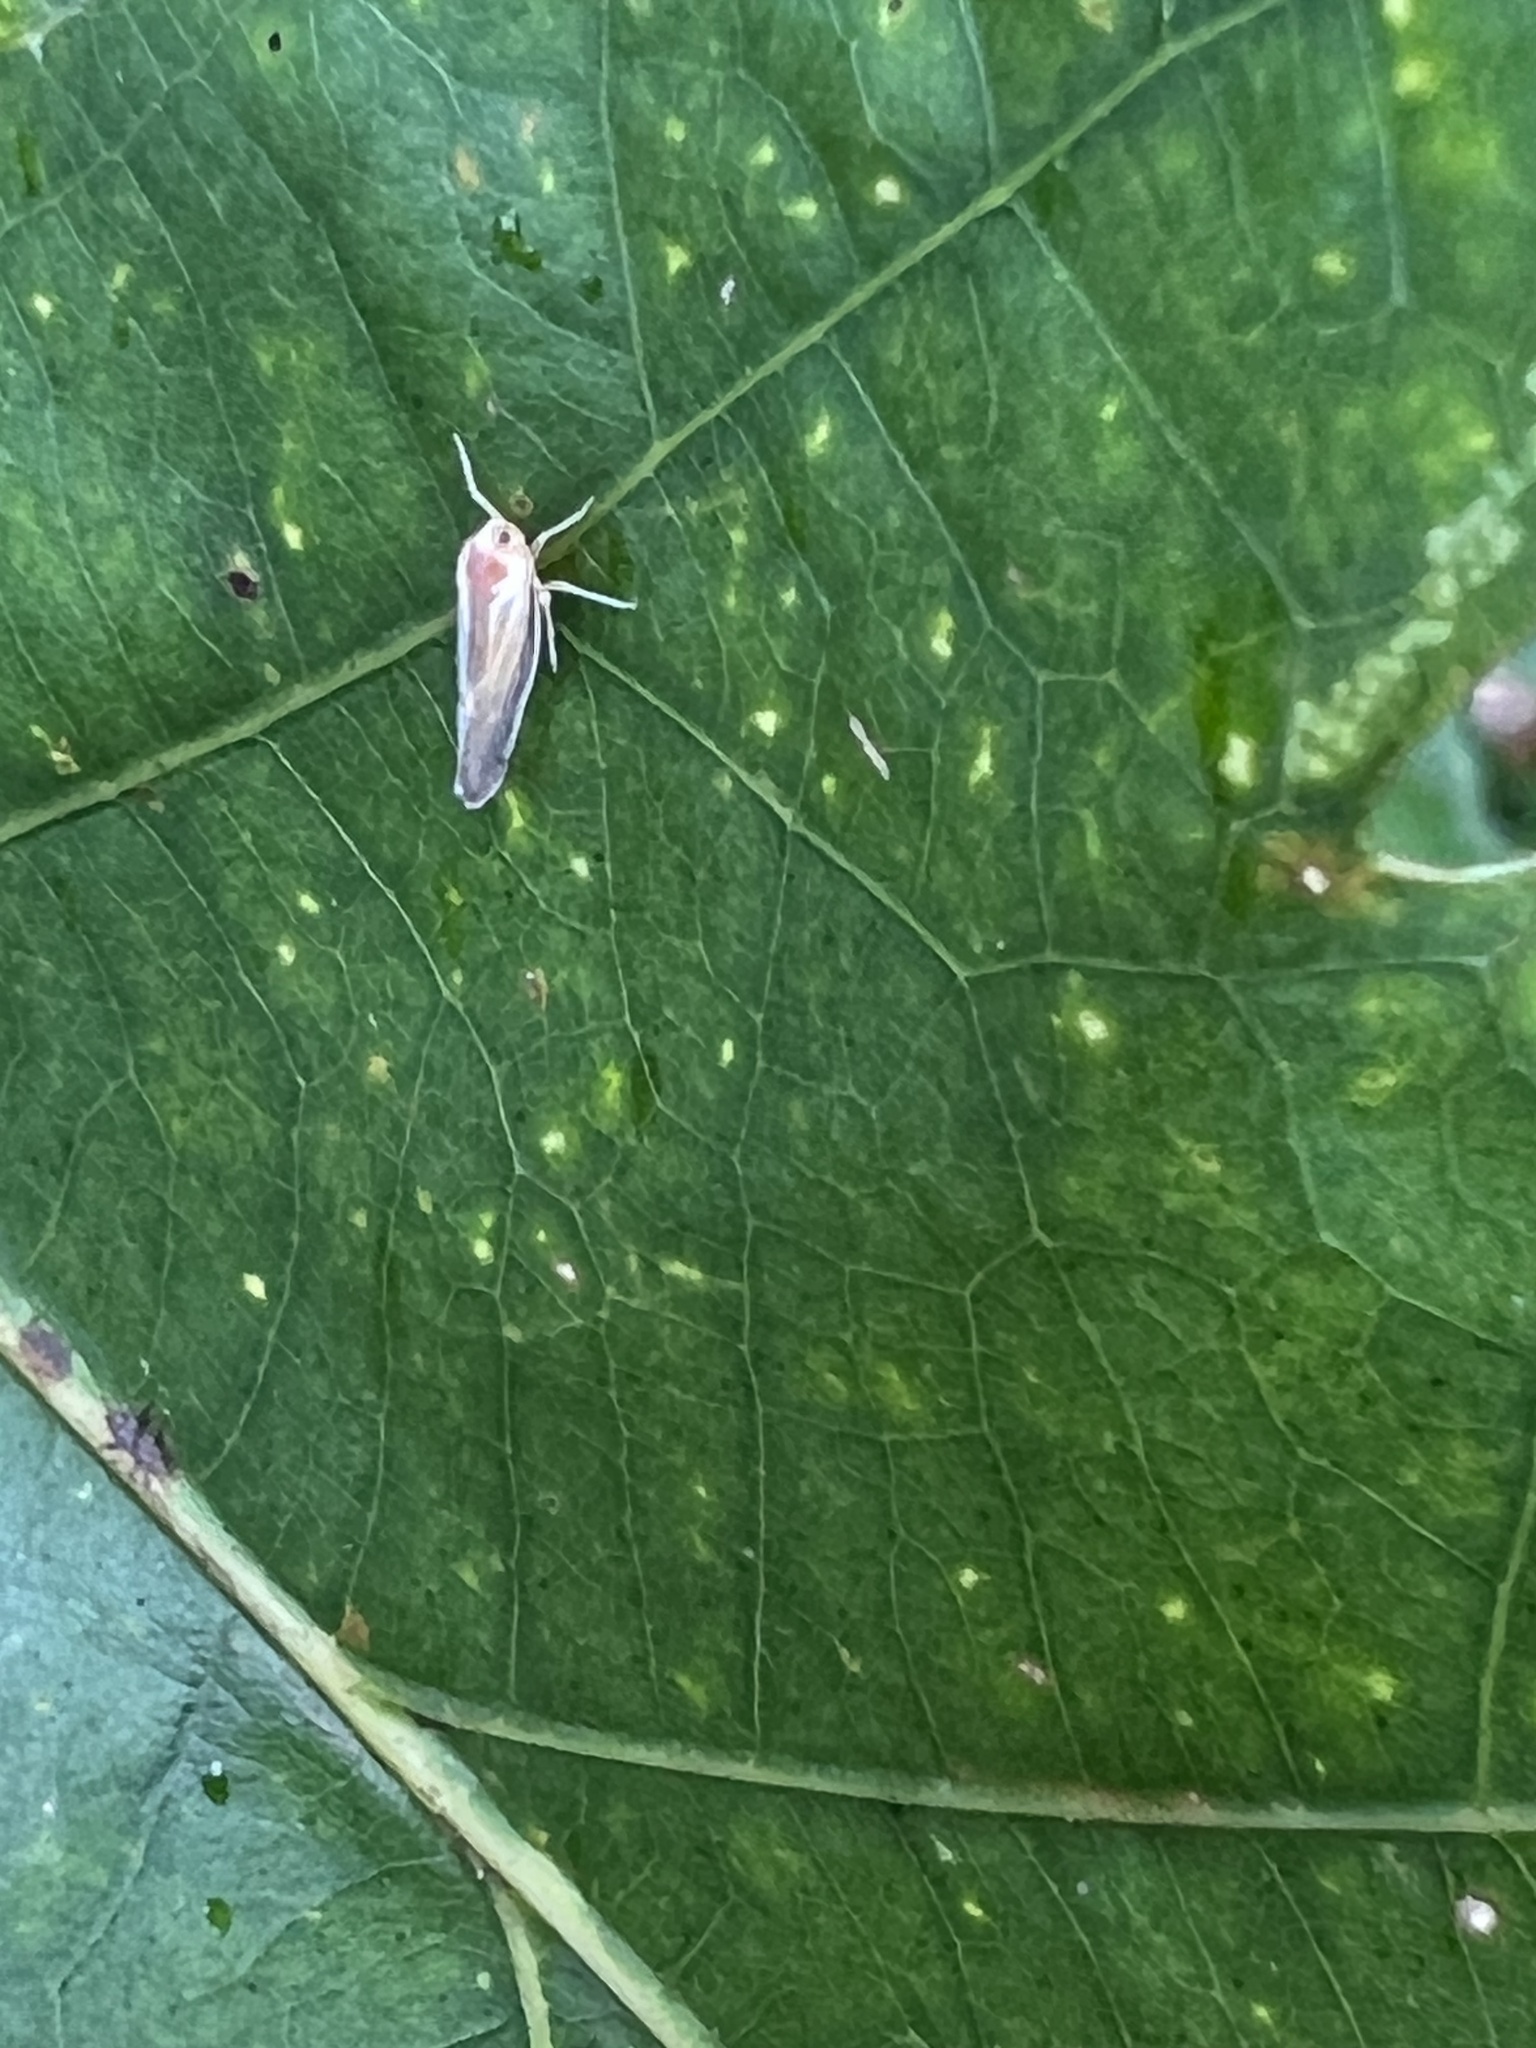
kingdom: Animalia
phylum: Arthropoda
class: Insecta
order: Hemiptera
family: Derbidae
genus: Omolicna
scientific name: Omolicna uhleri
